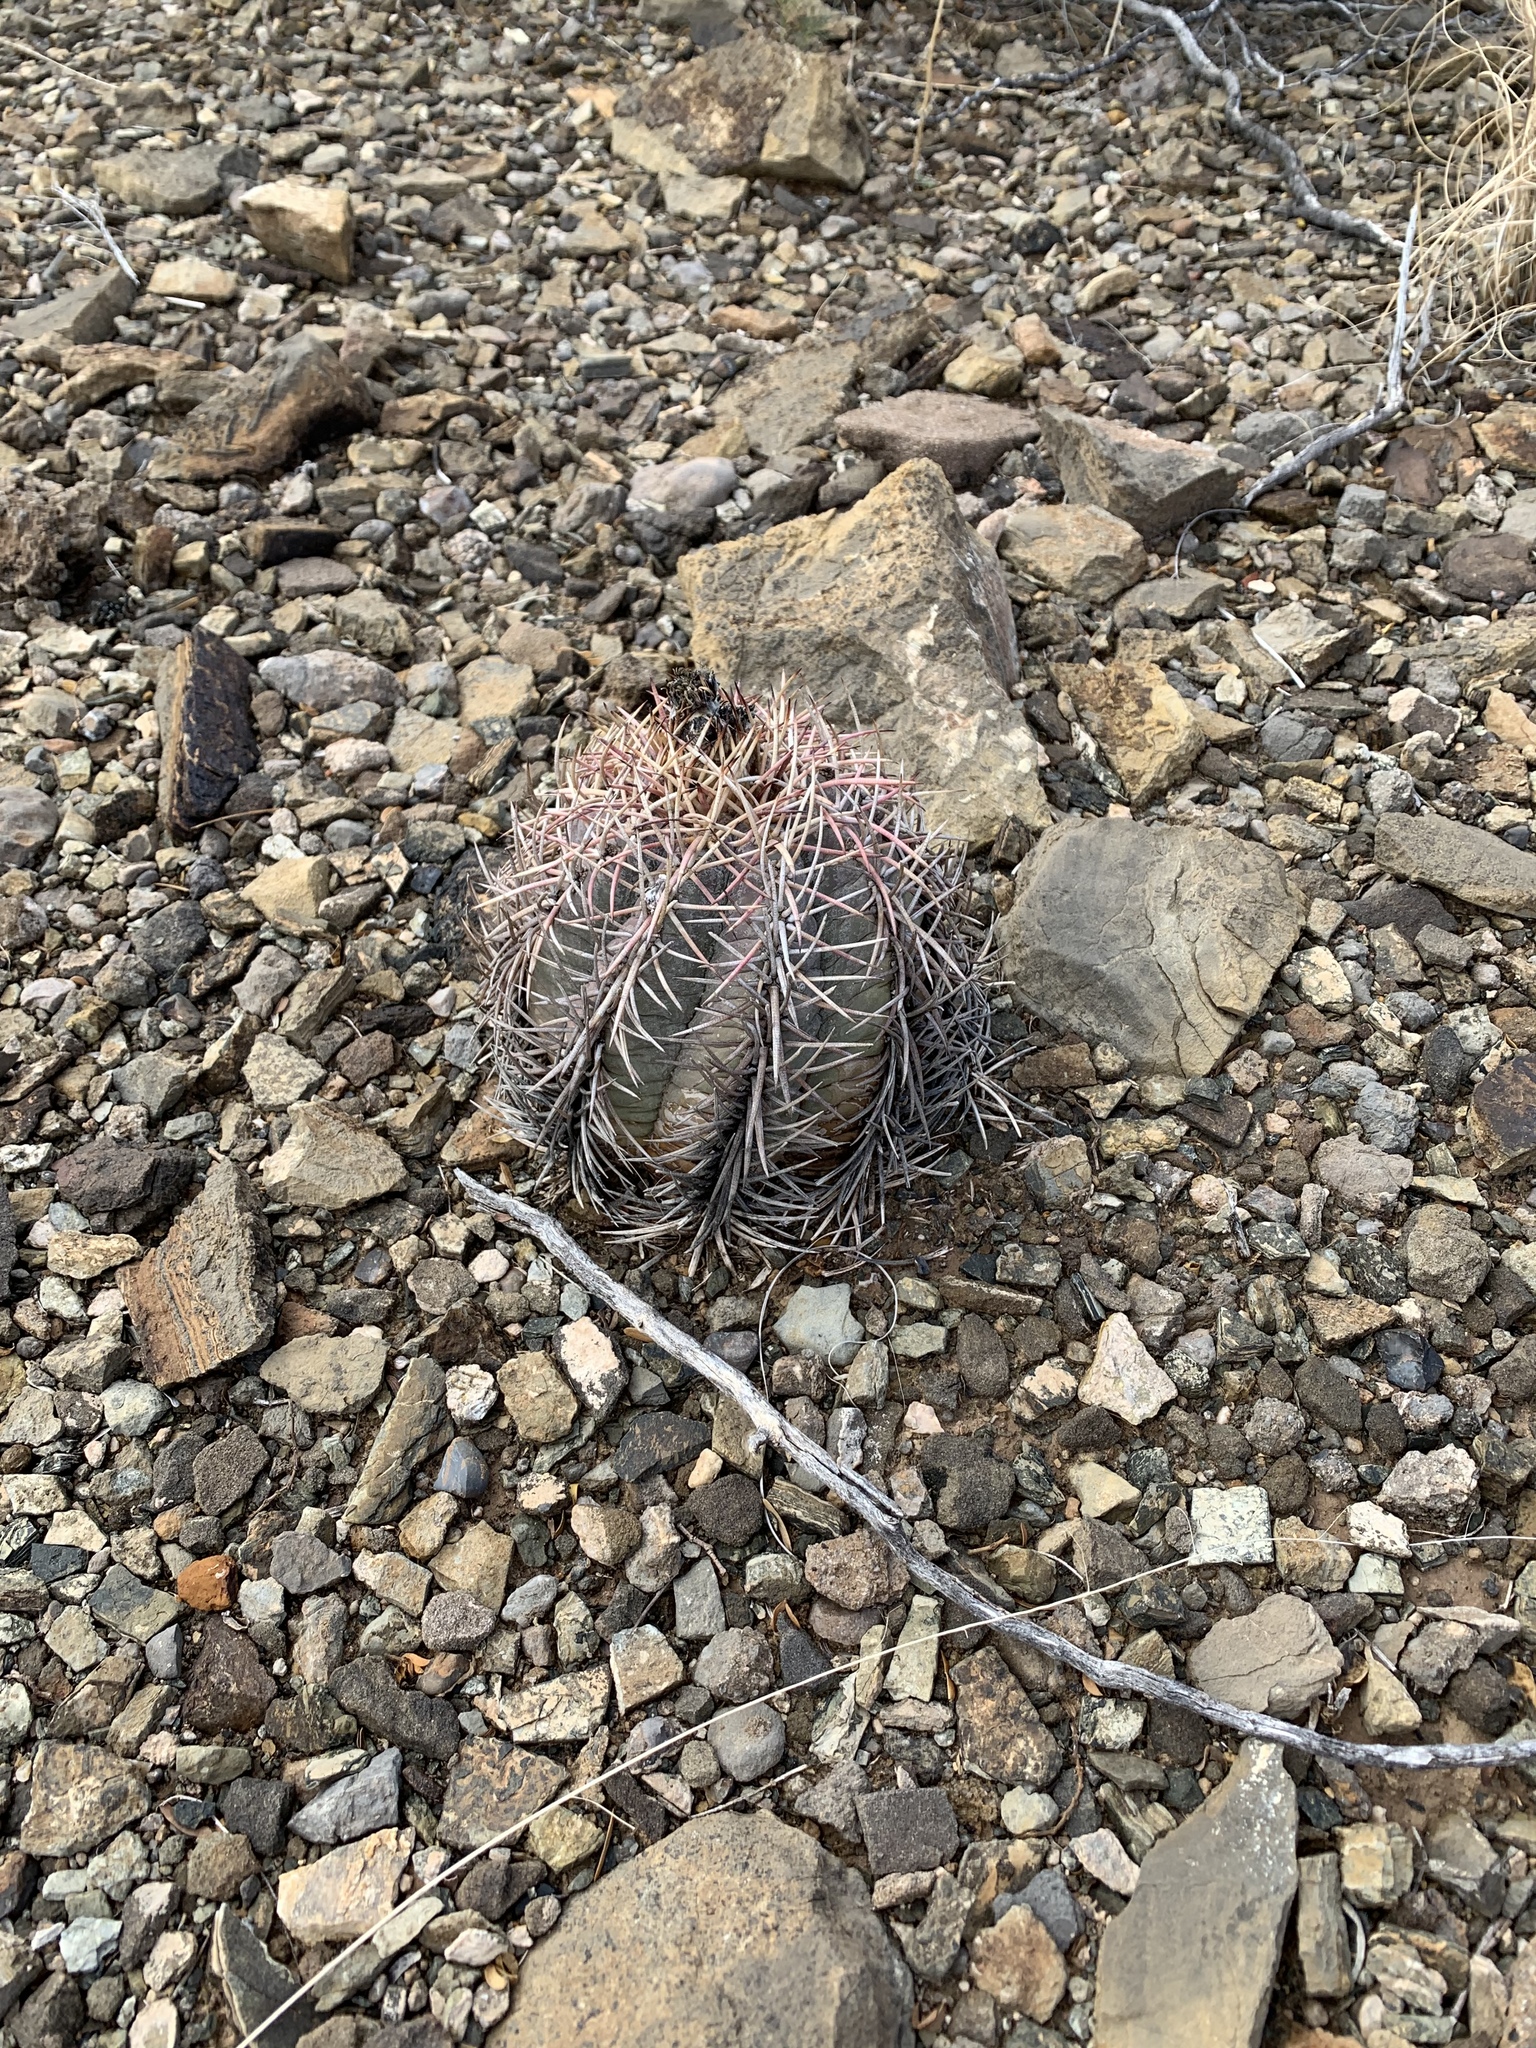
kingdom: Plantae
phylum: Tracheophyta
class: Magnoliopsida
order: Caryophyllales
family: Cactaceae
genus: Echinocactus
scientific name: Echinocactus horizonthalonius
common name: Devilshead
